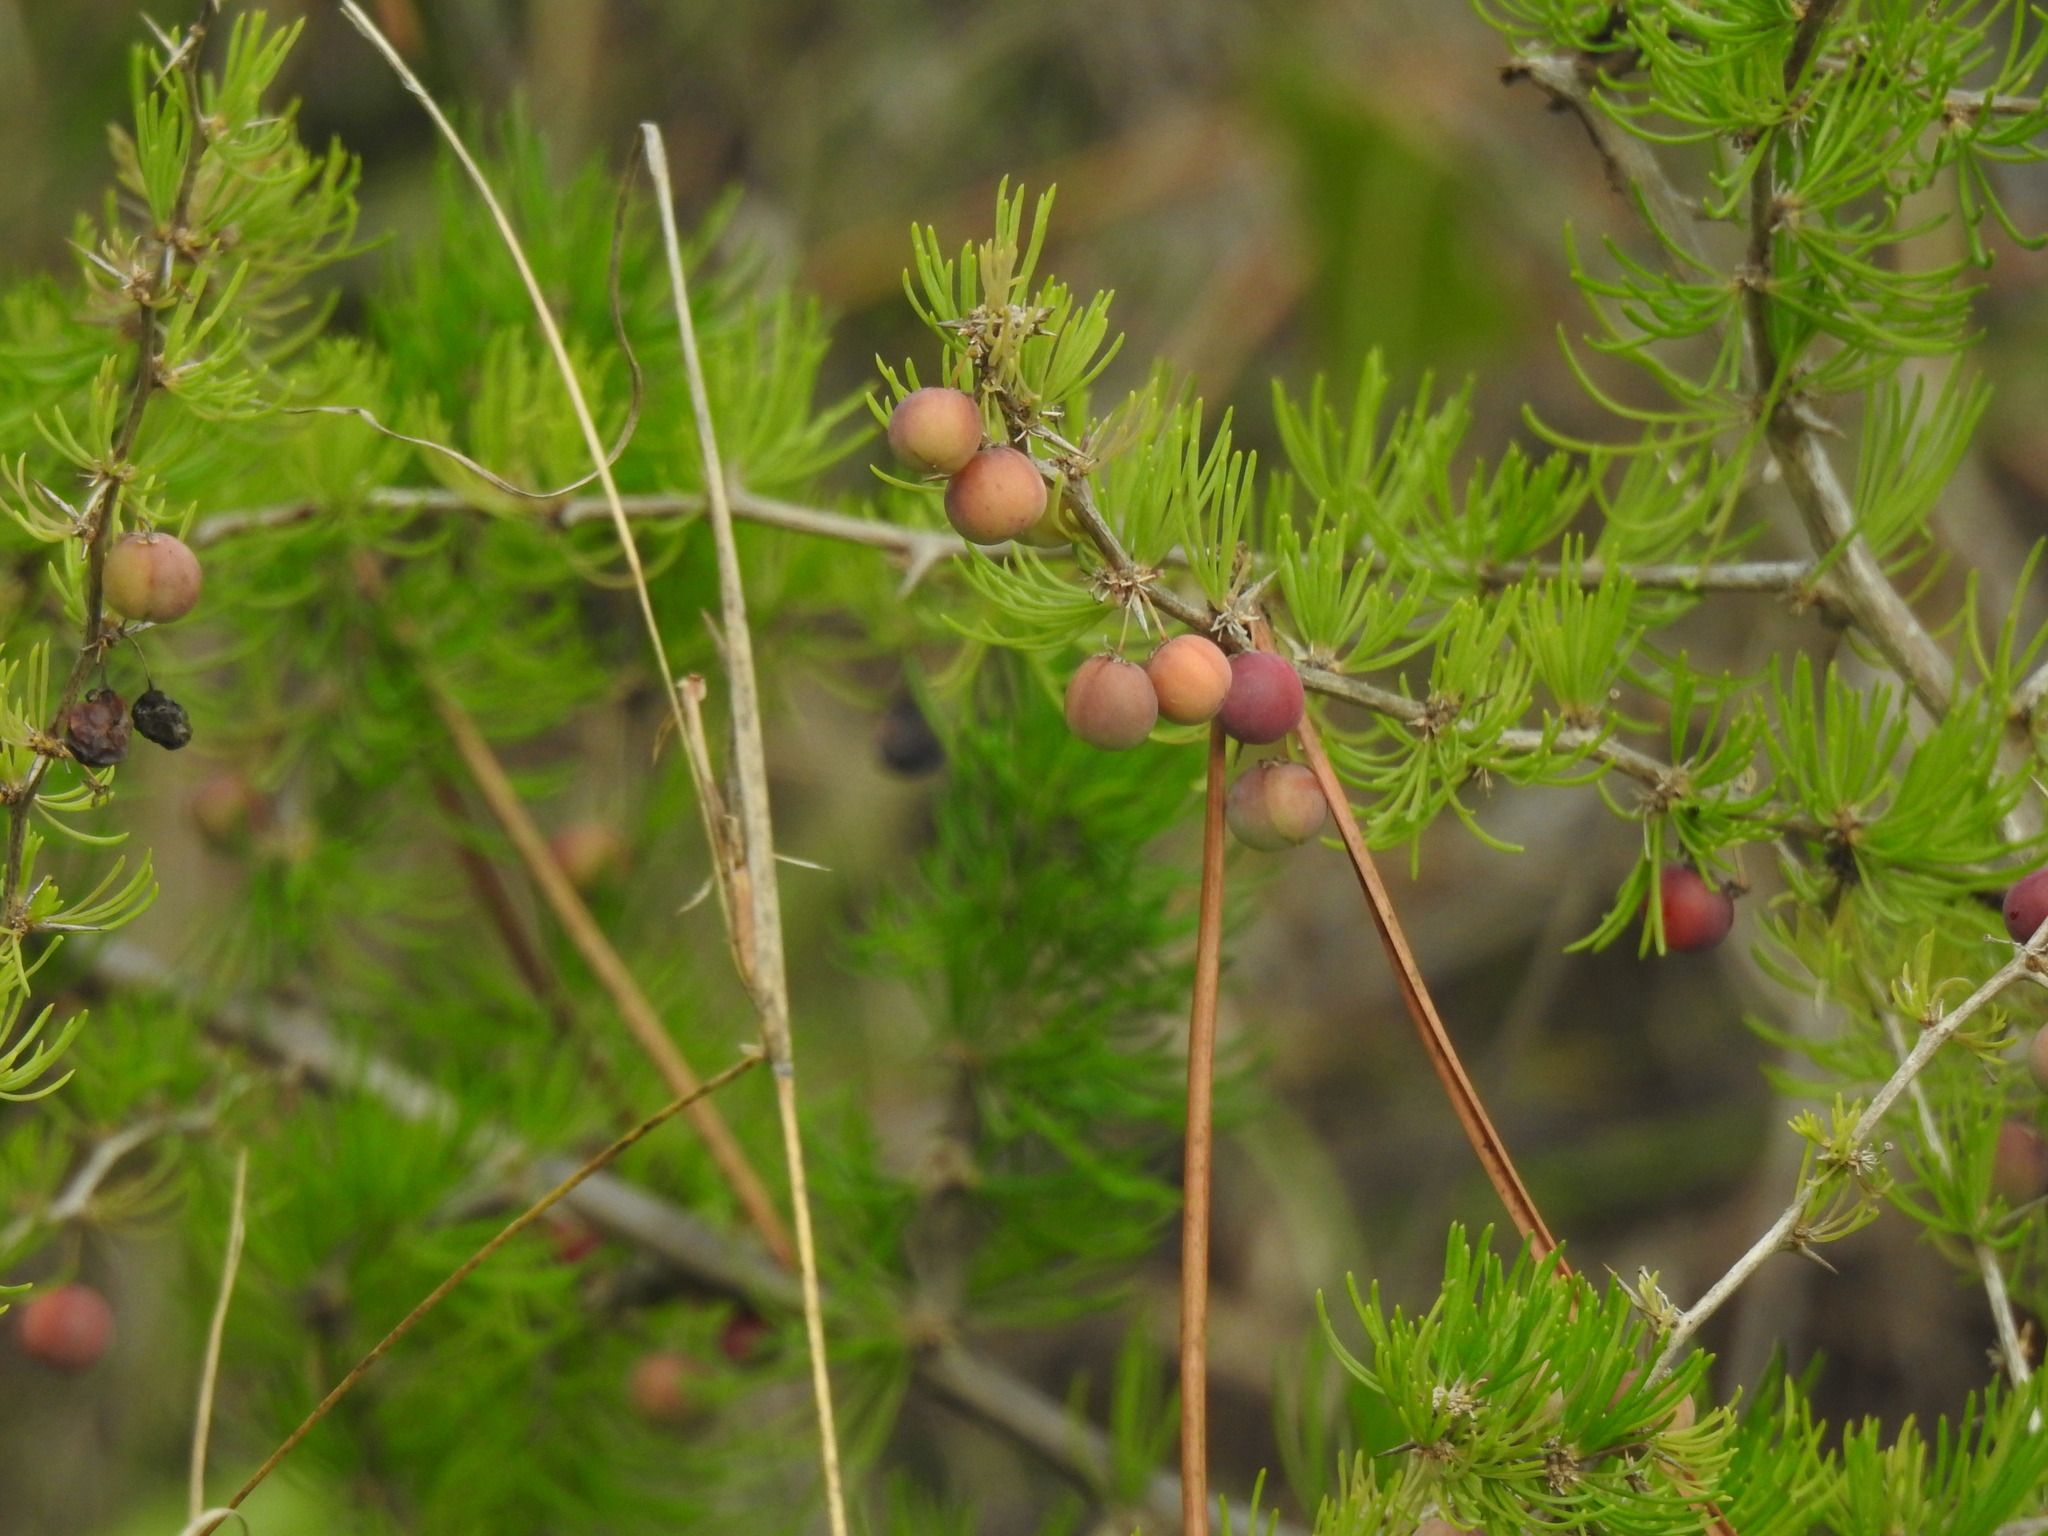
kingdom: Plantae
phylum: Tracheophyta
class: Liliopsida
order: Asparagales
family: Asparagaceae
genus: Asparagus
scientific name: Asparagus albus
